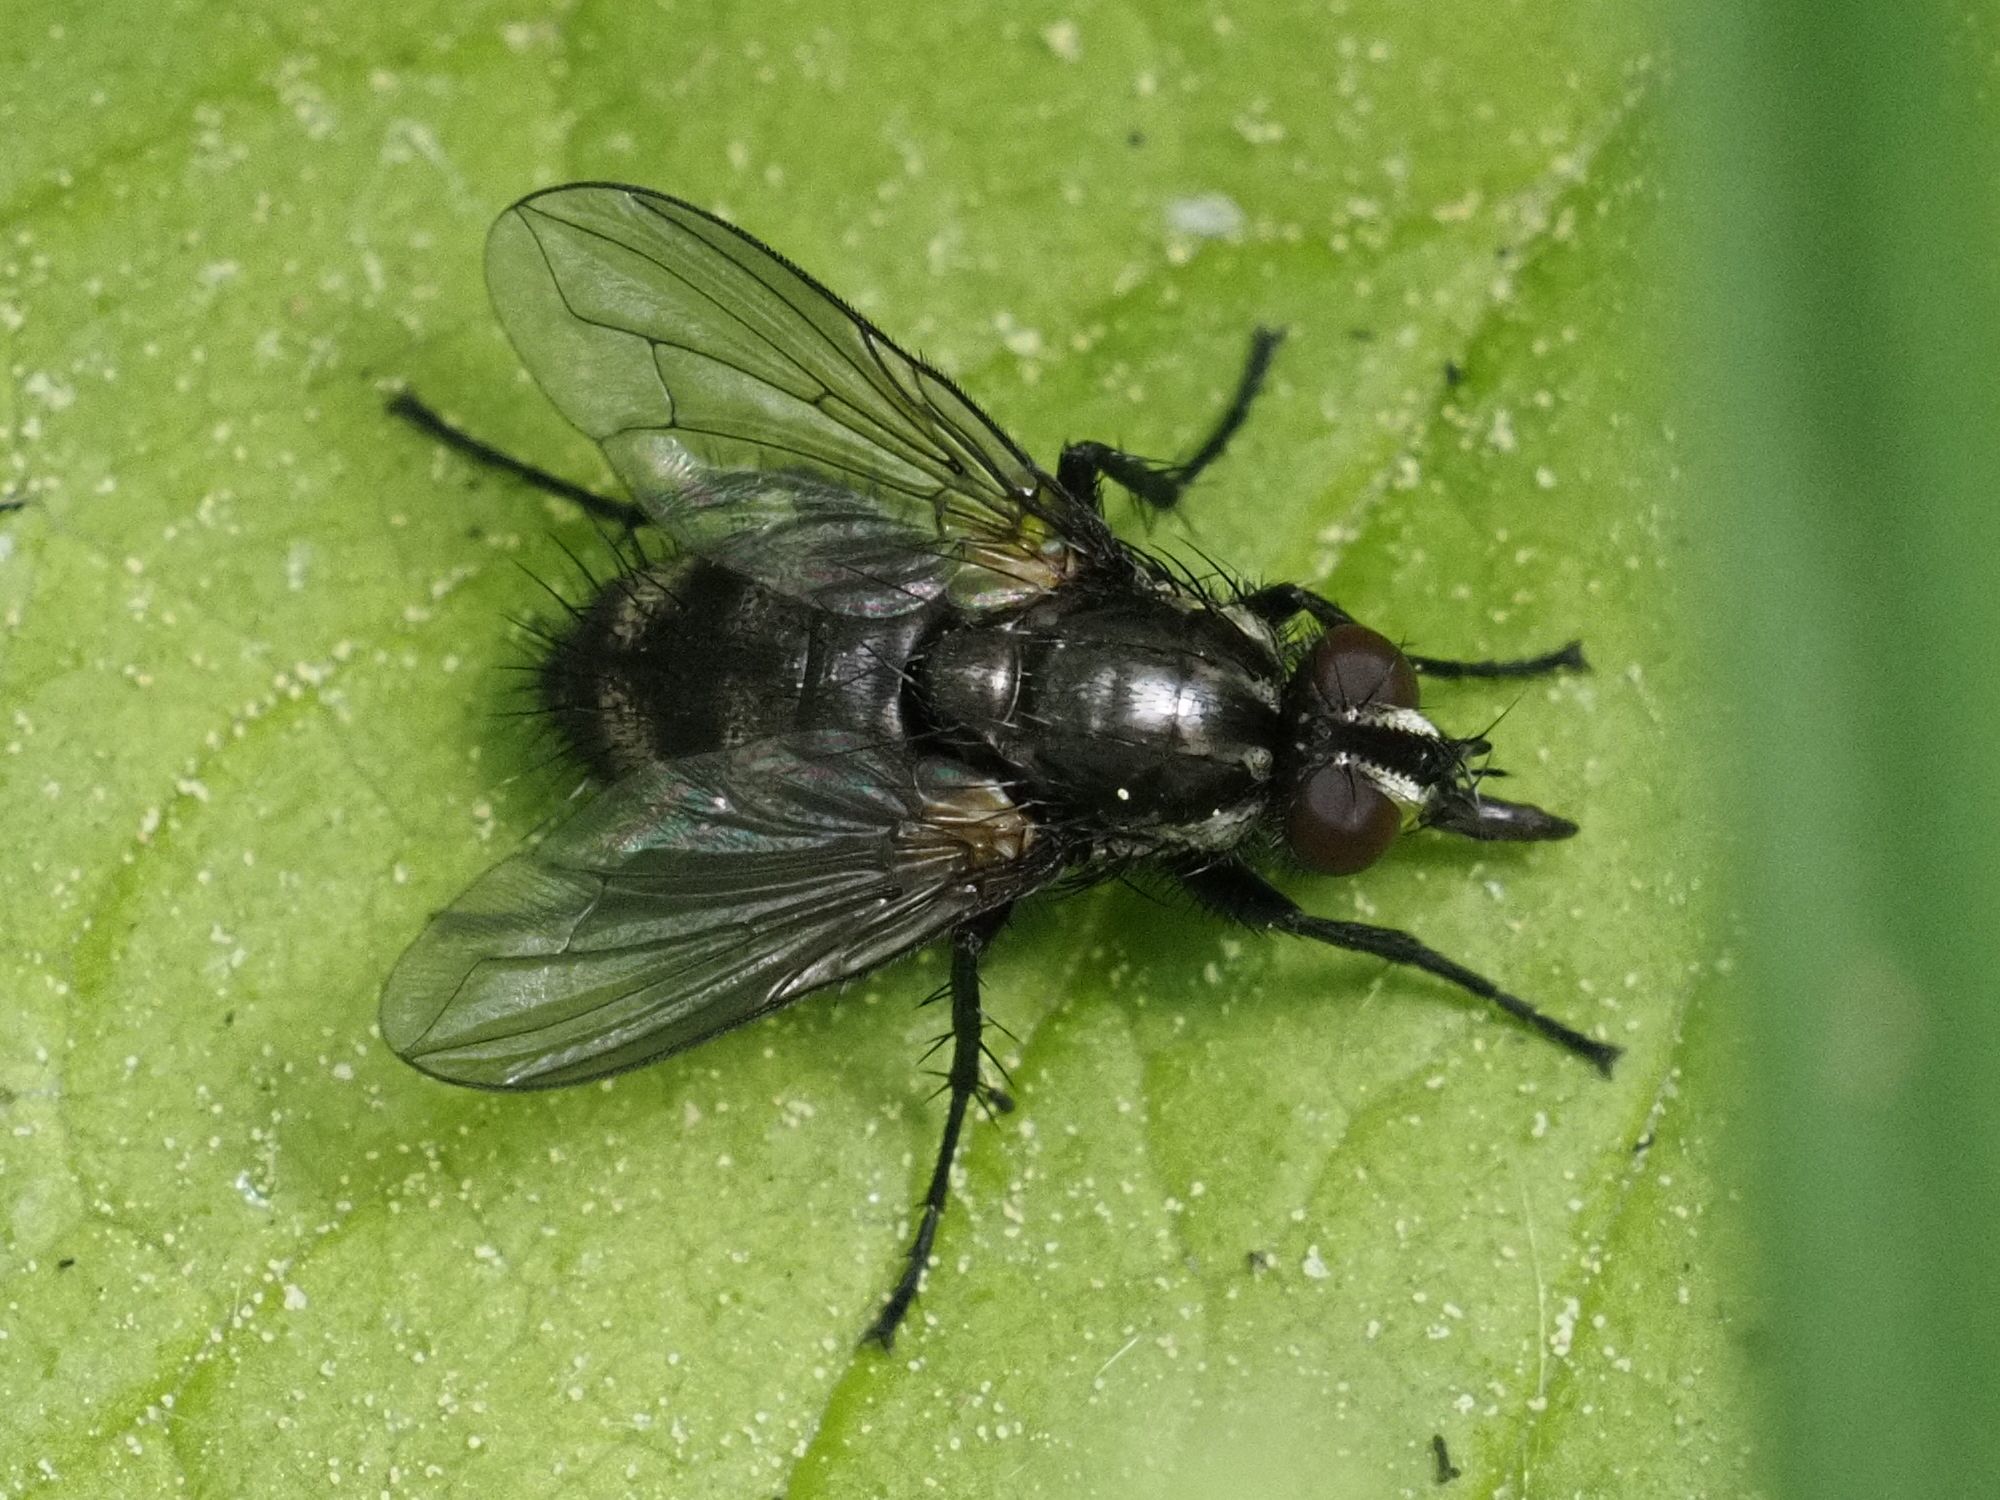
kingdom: Animalia
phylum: Arthropoda
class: Insecta
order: Diptera
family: Calliphoridae
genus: Rhinomorinia
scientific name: Rhinomorinia sarcophagina
